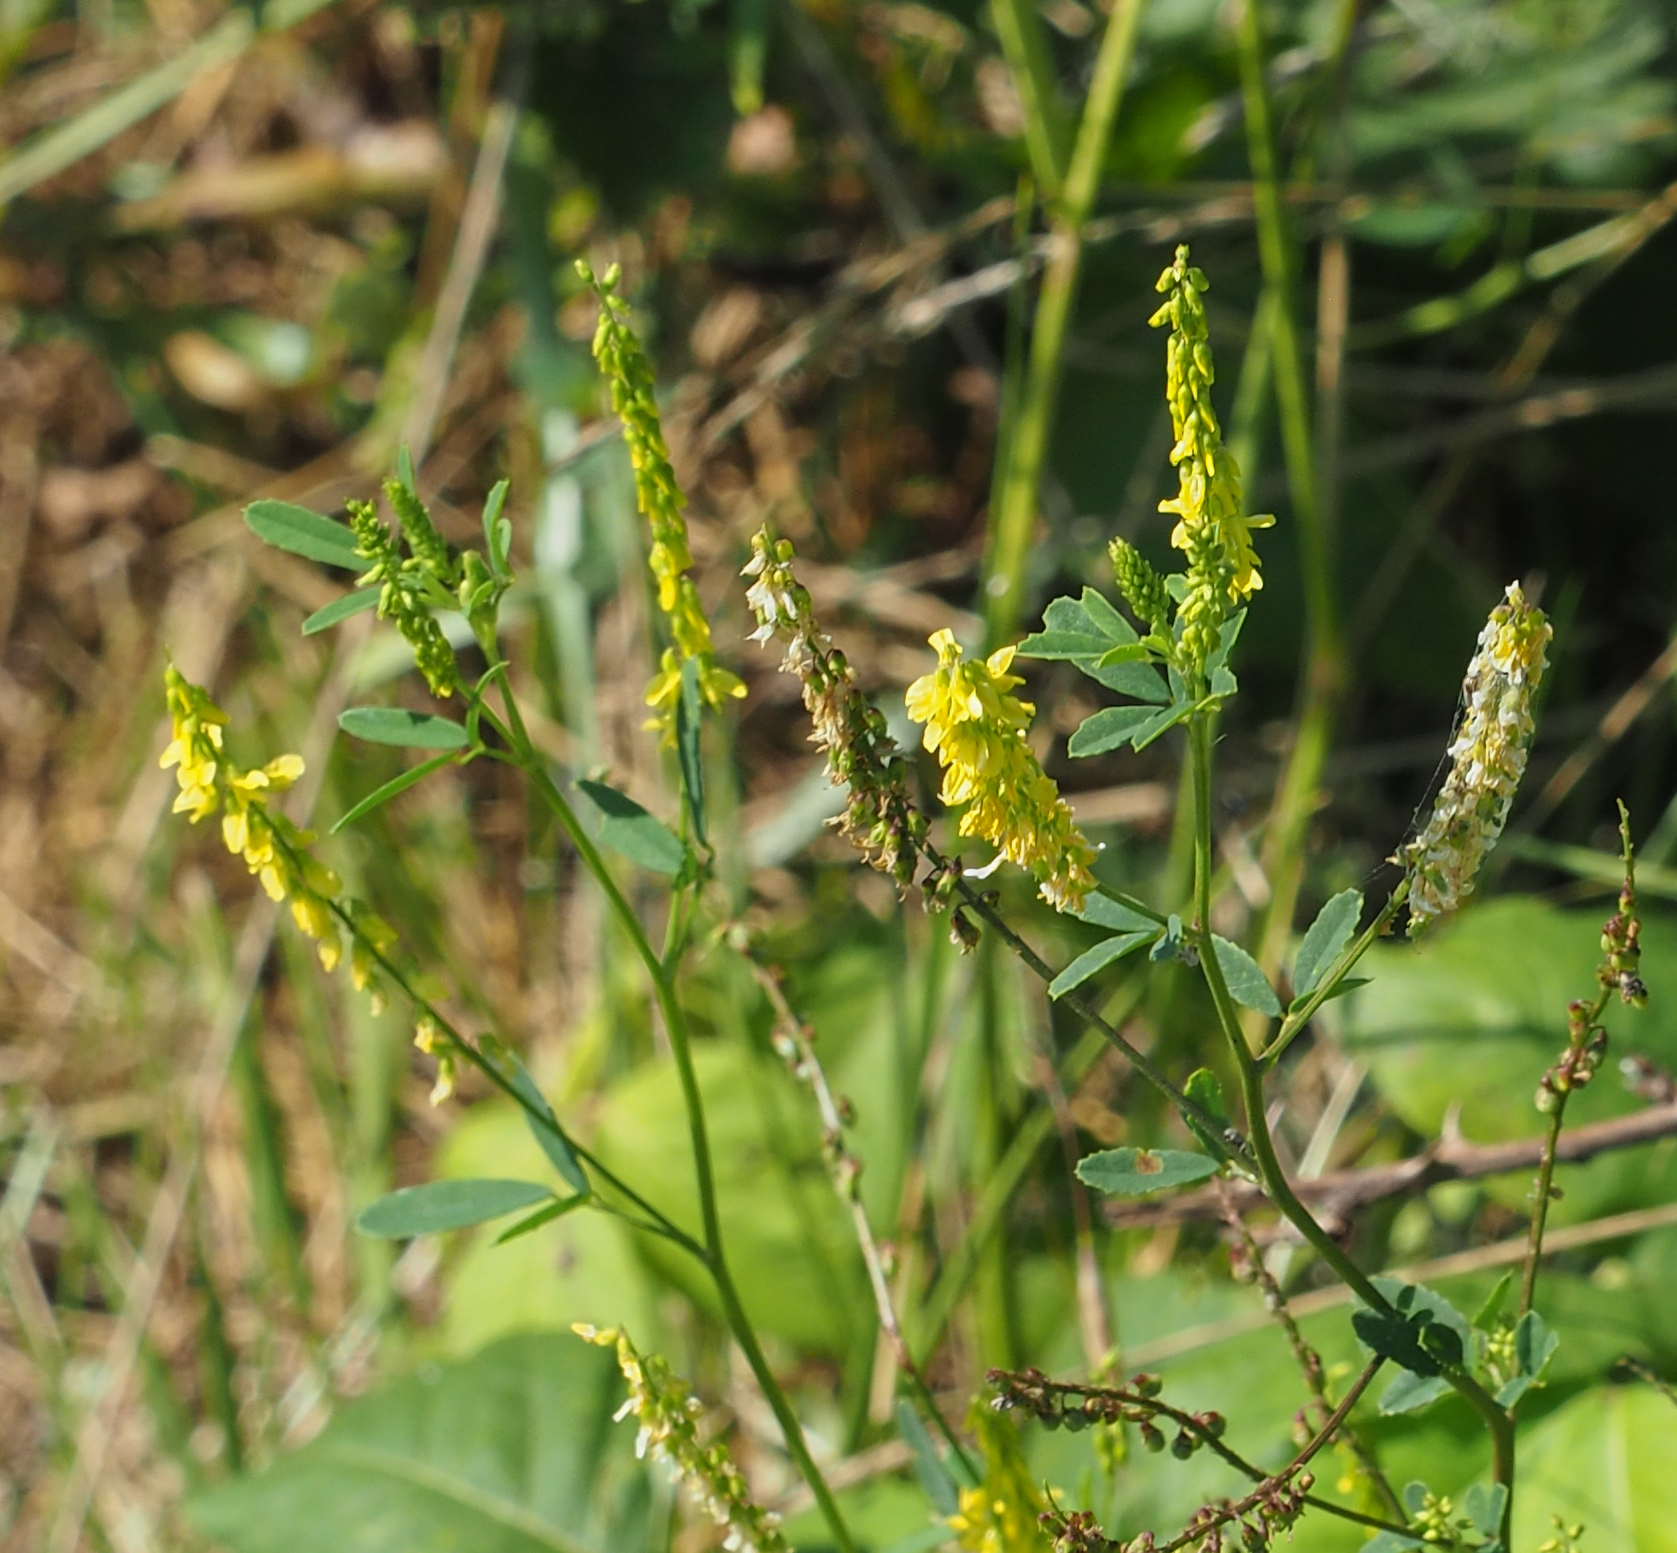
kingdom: Plantae
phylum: Tracheophyta
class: Magnoliopsida
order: Fabales
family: Fabaceae
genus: Melilotus
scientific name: Melilotus officinalis
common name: Sweetclover
